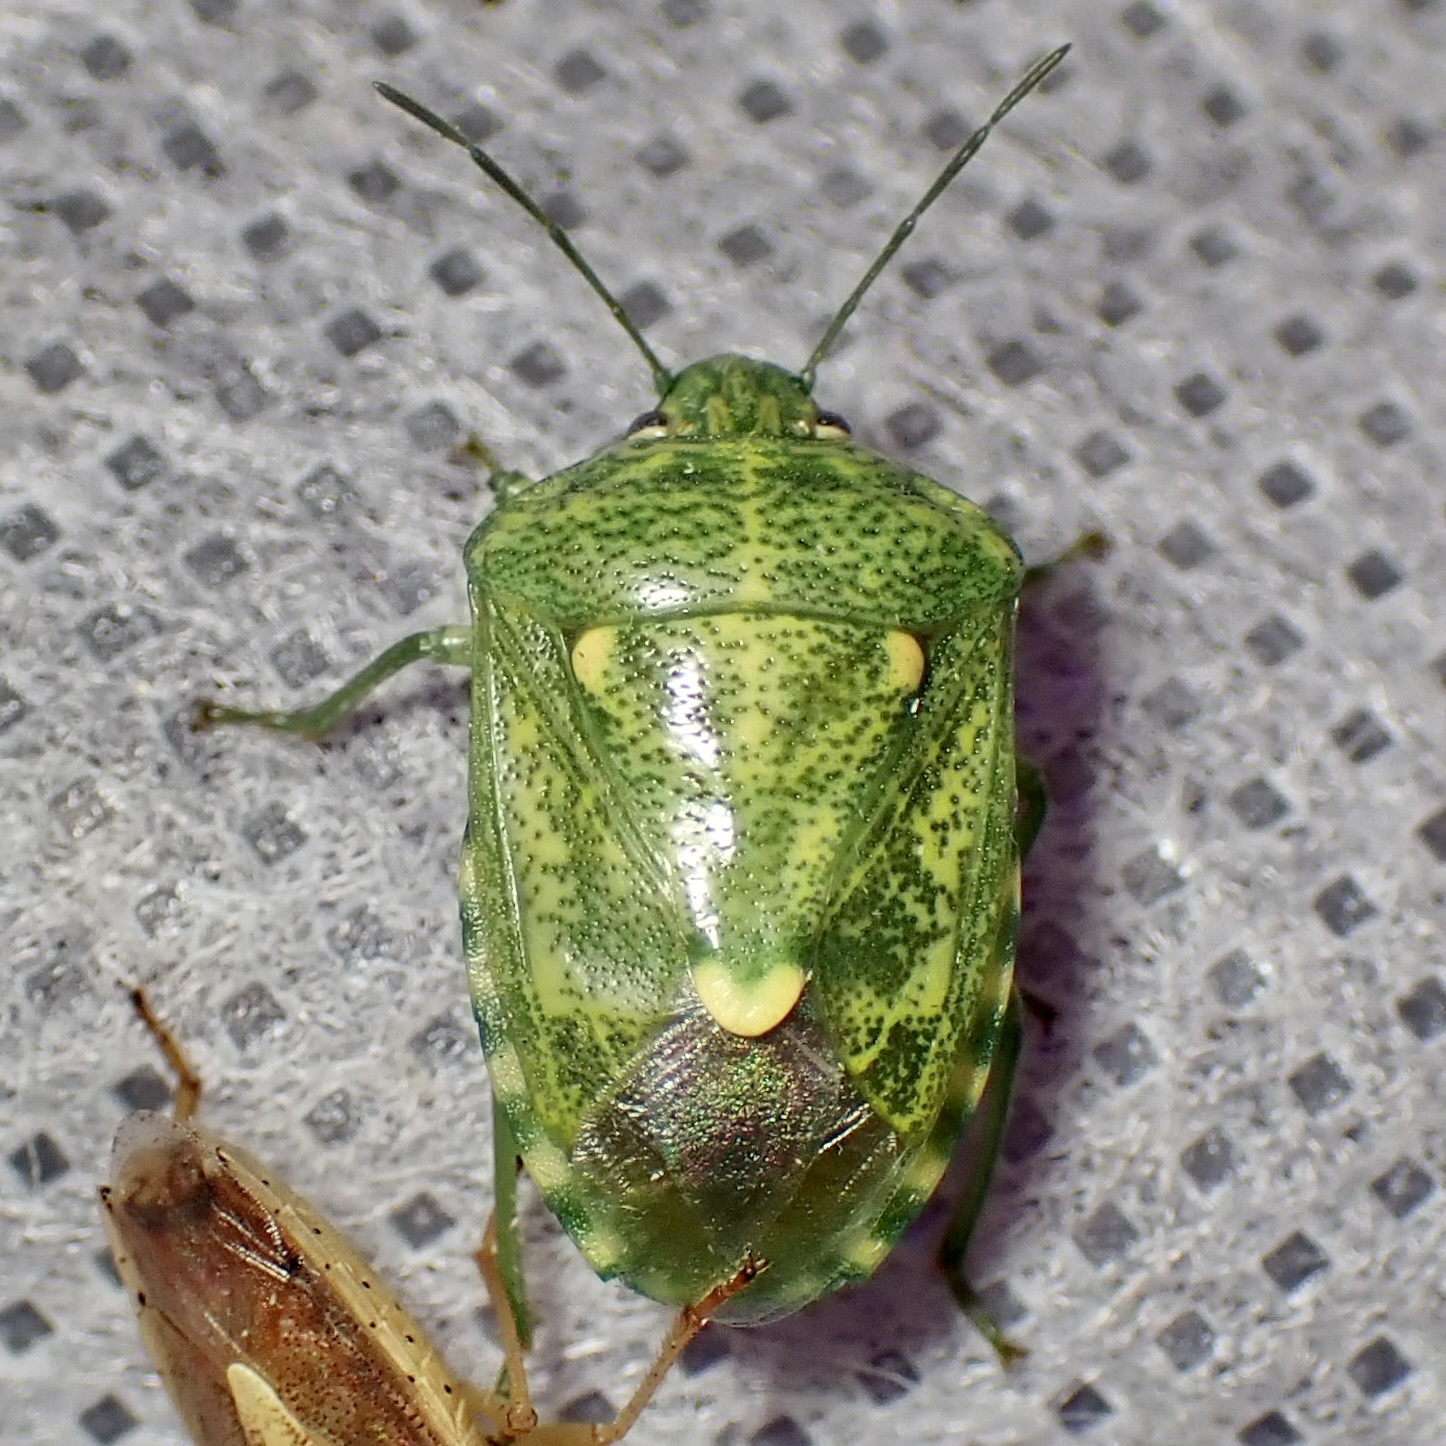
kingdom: Animalia
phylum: Arthropoda
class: Insecta
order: Hemiptera
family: Pentatomidae
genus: Banasa
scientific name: Banasa euchlora
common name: Cedar berry bug
